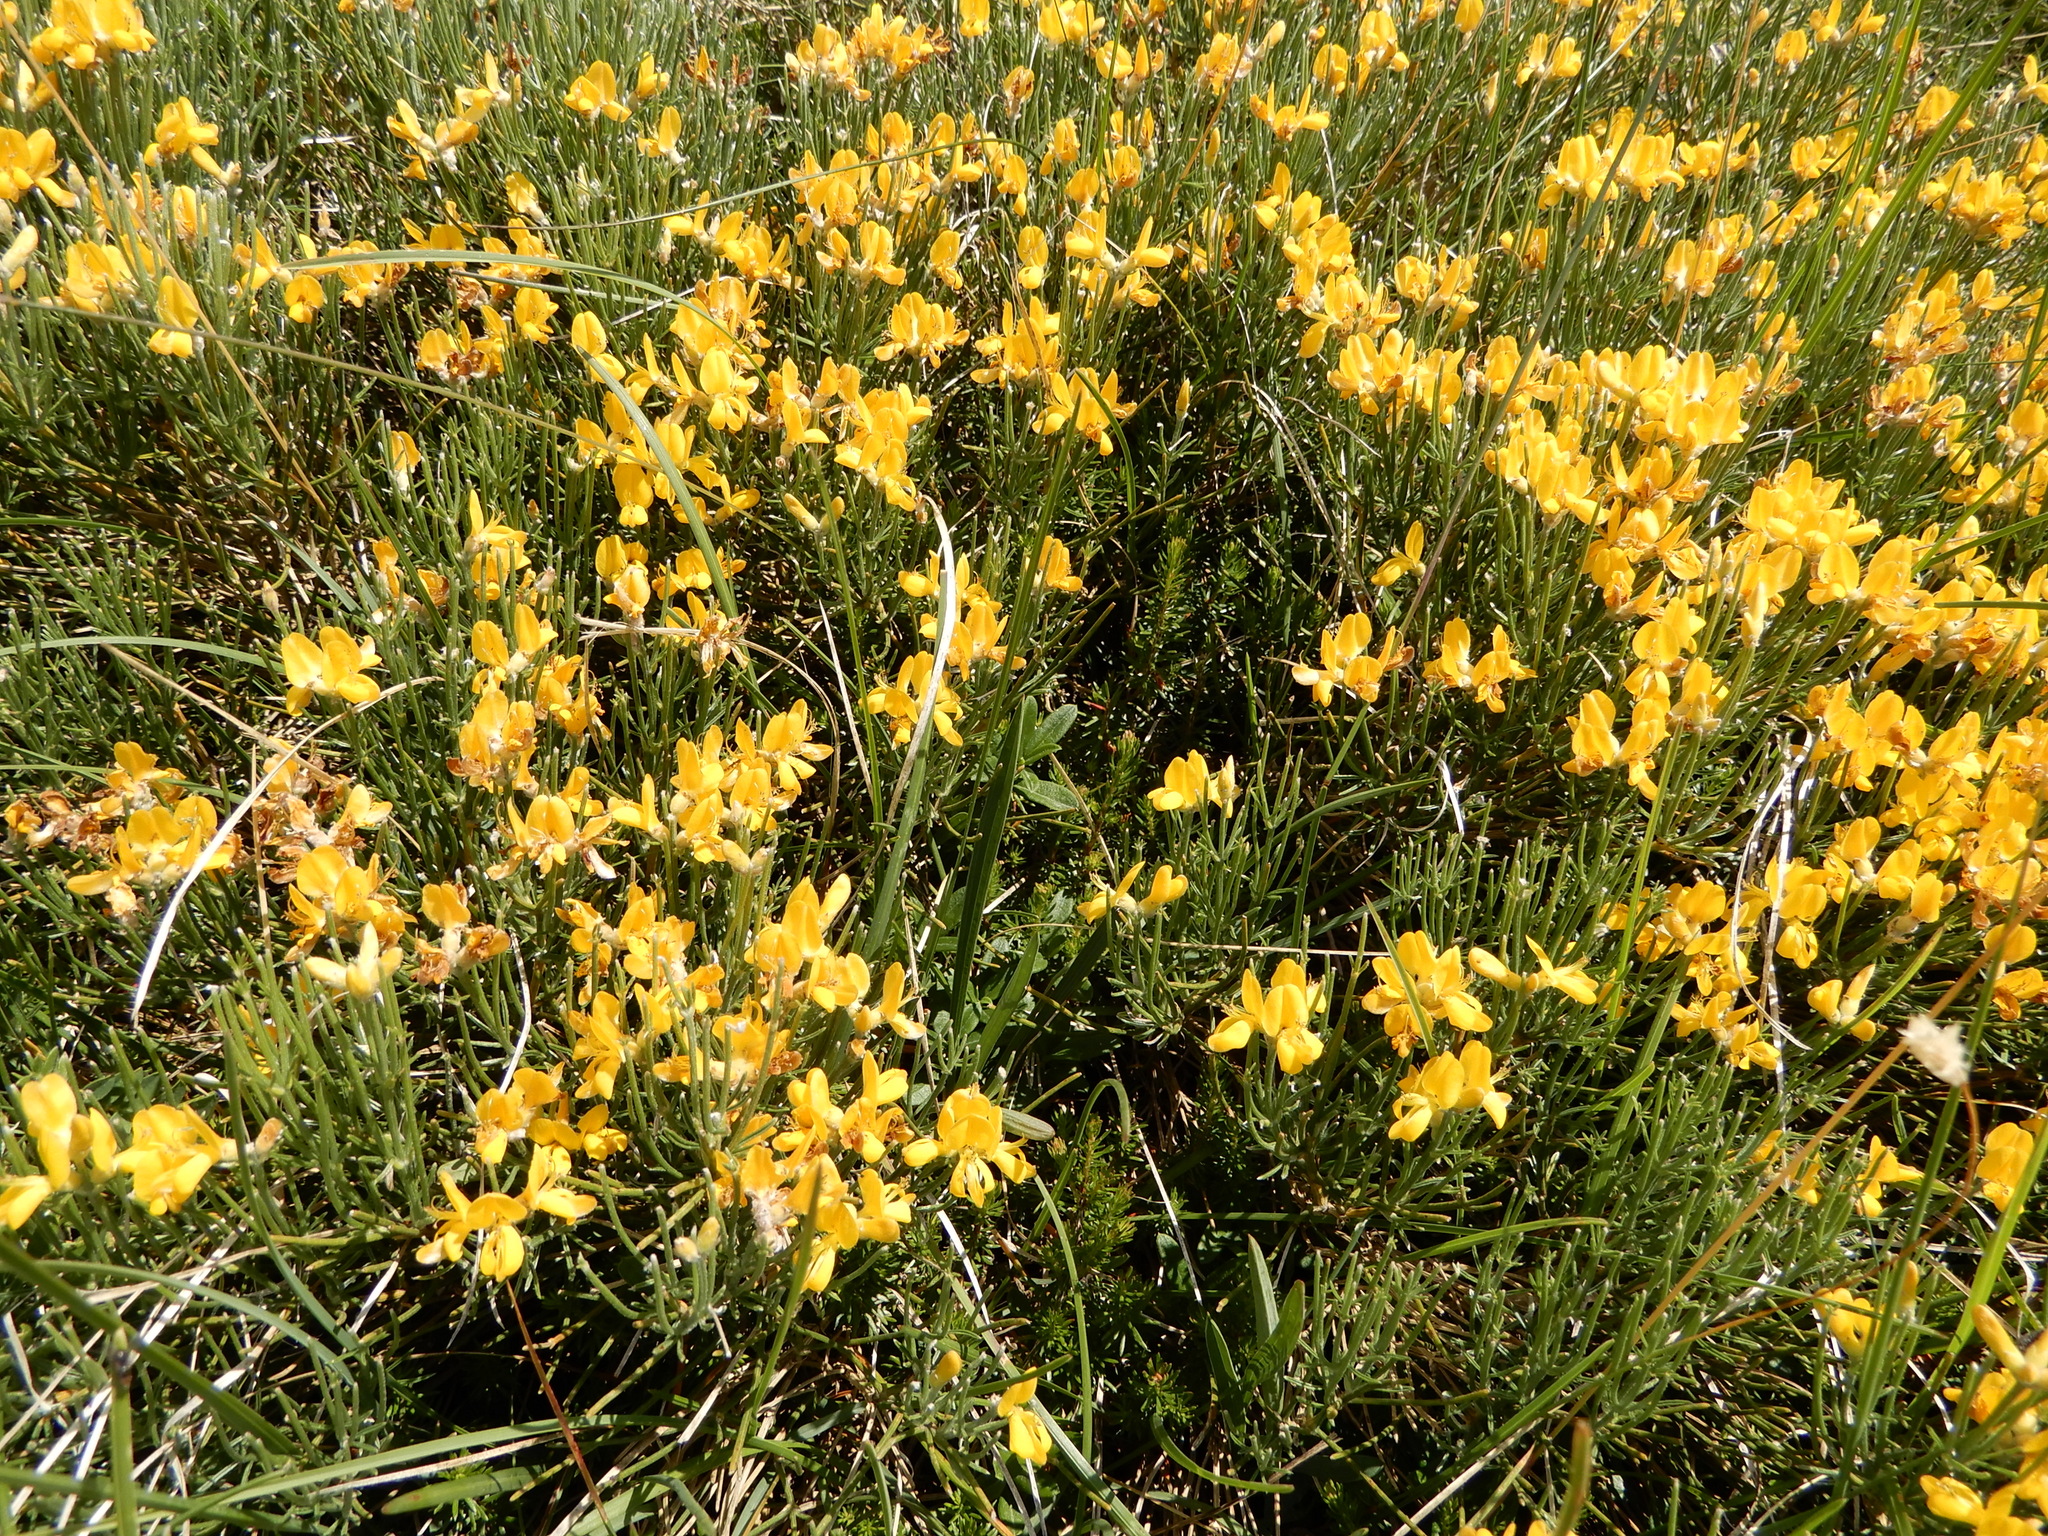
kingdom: Plantae
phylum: Tracheophyta
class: Magnoliopsida
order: Fabales
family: Fabaceae
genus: Genista
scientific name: Genista radiata
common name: Southern greenweed
